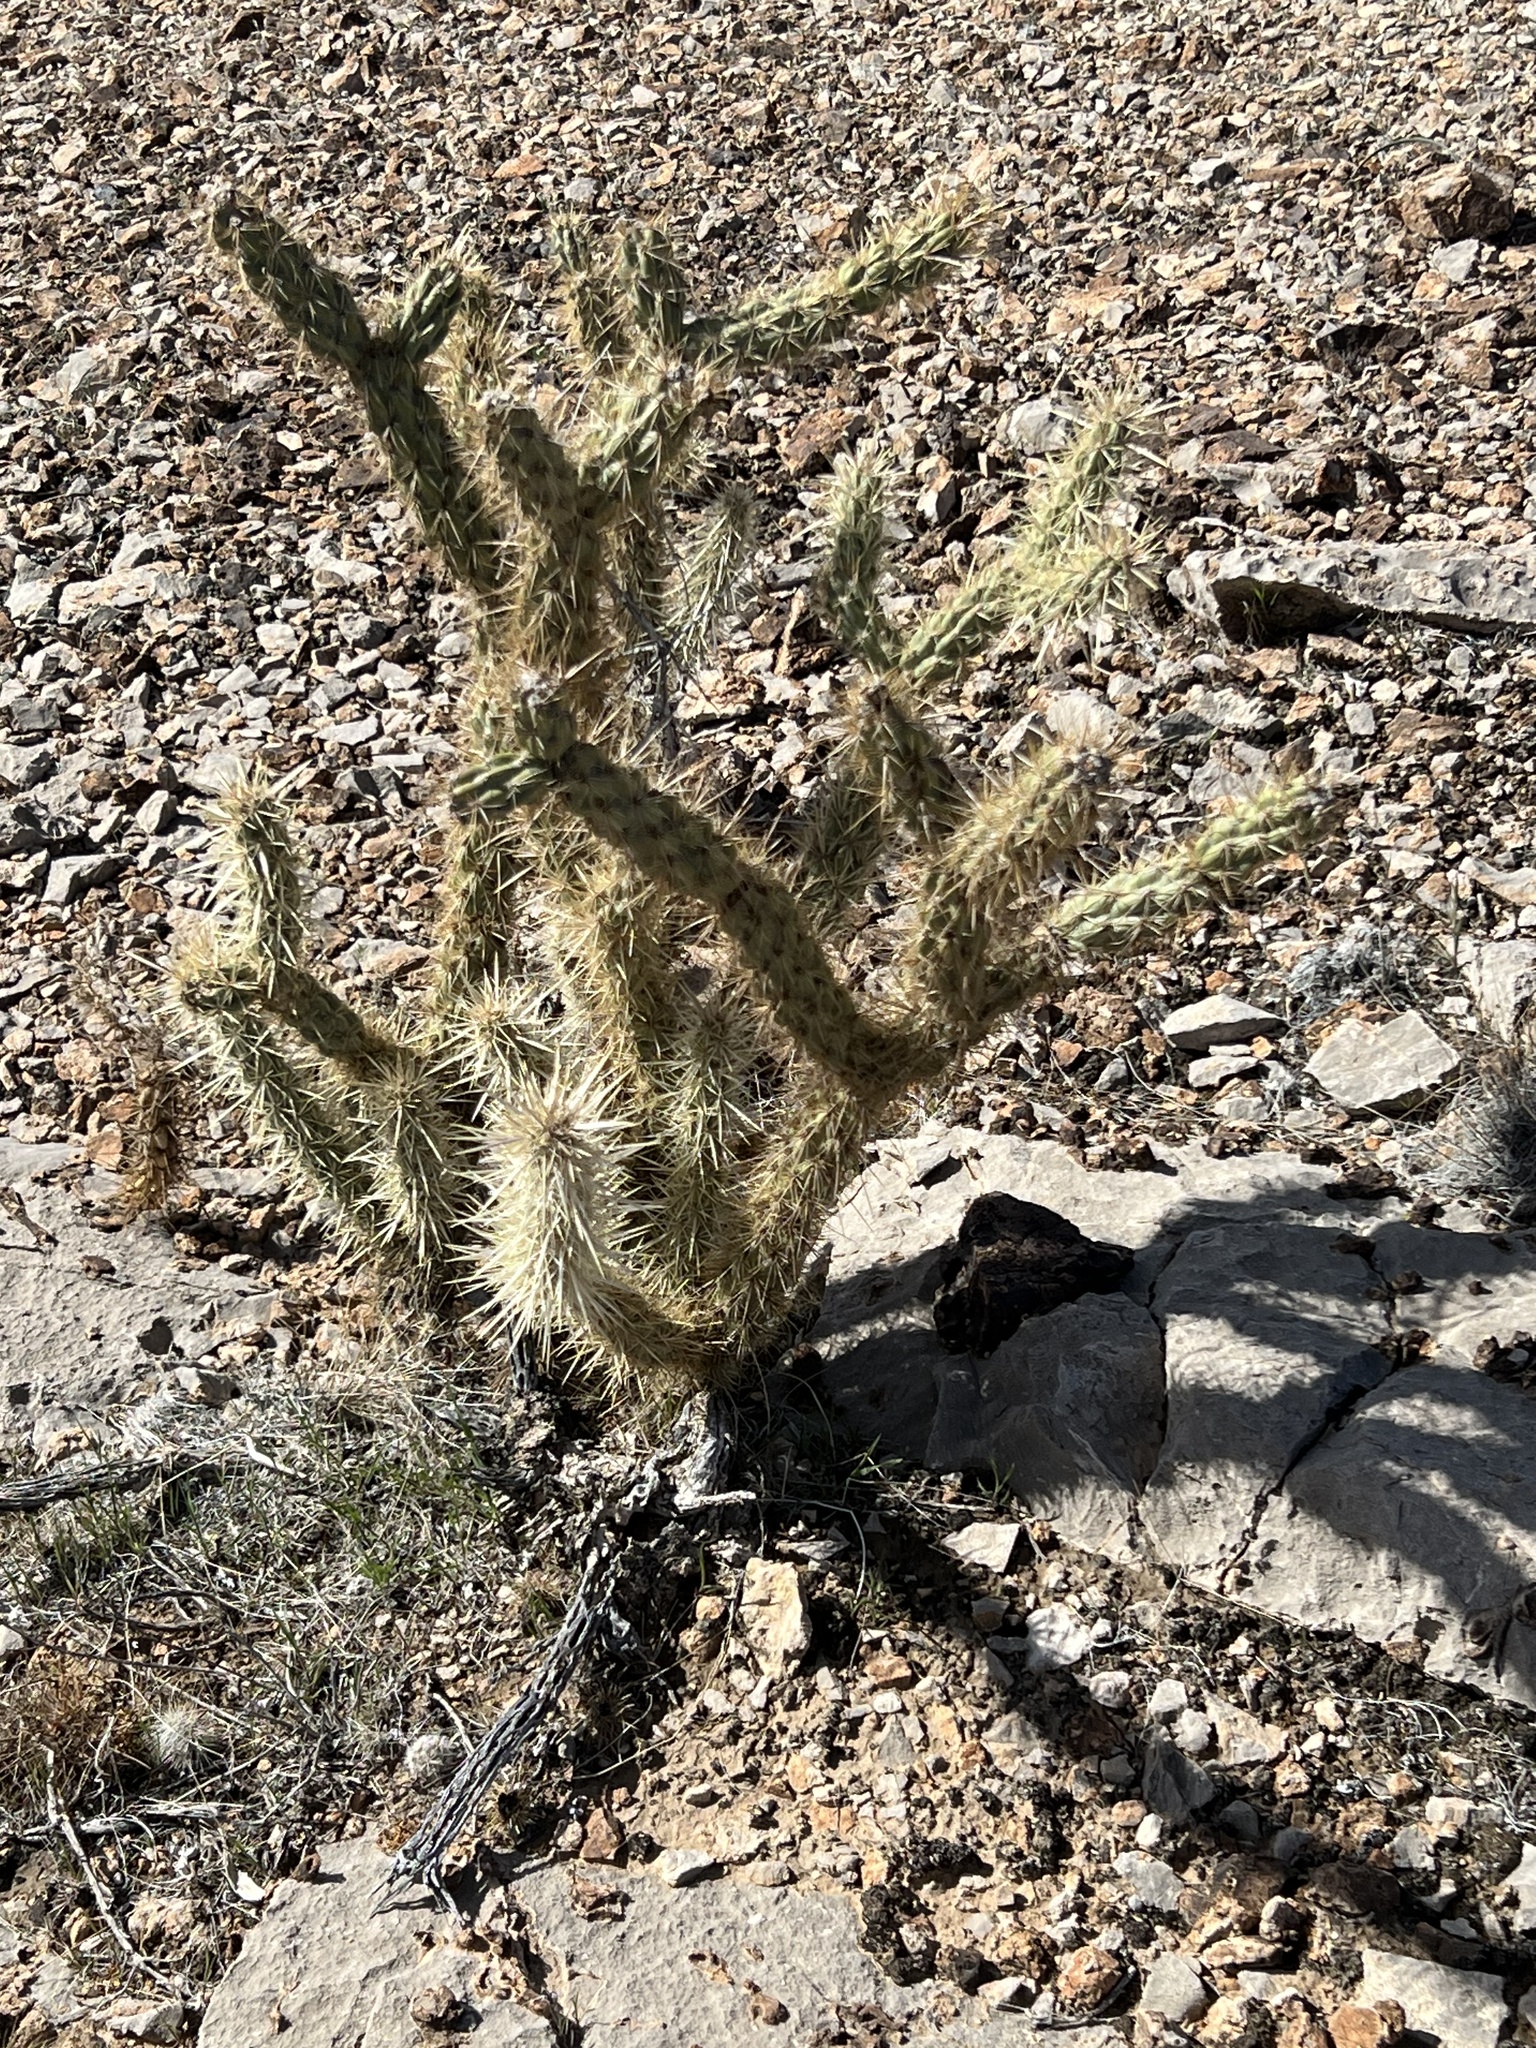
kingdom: Plantae
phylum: Tracheophyta
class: Magnoliopsida
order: Caryophyllales
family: Cactaceae
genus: Cylindropuntia
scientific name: Cylindropuntia acanthocarpa
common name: Buckhorn cholla
